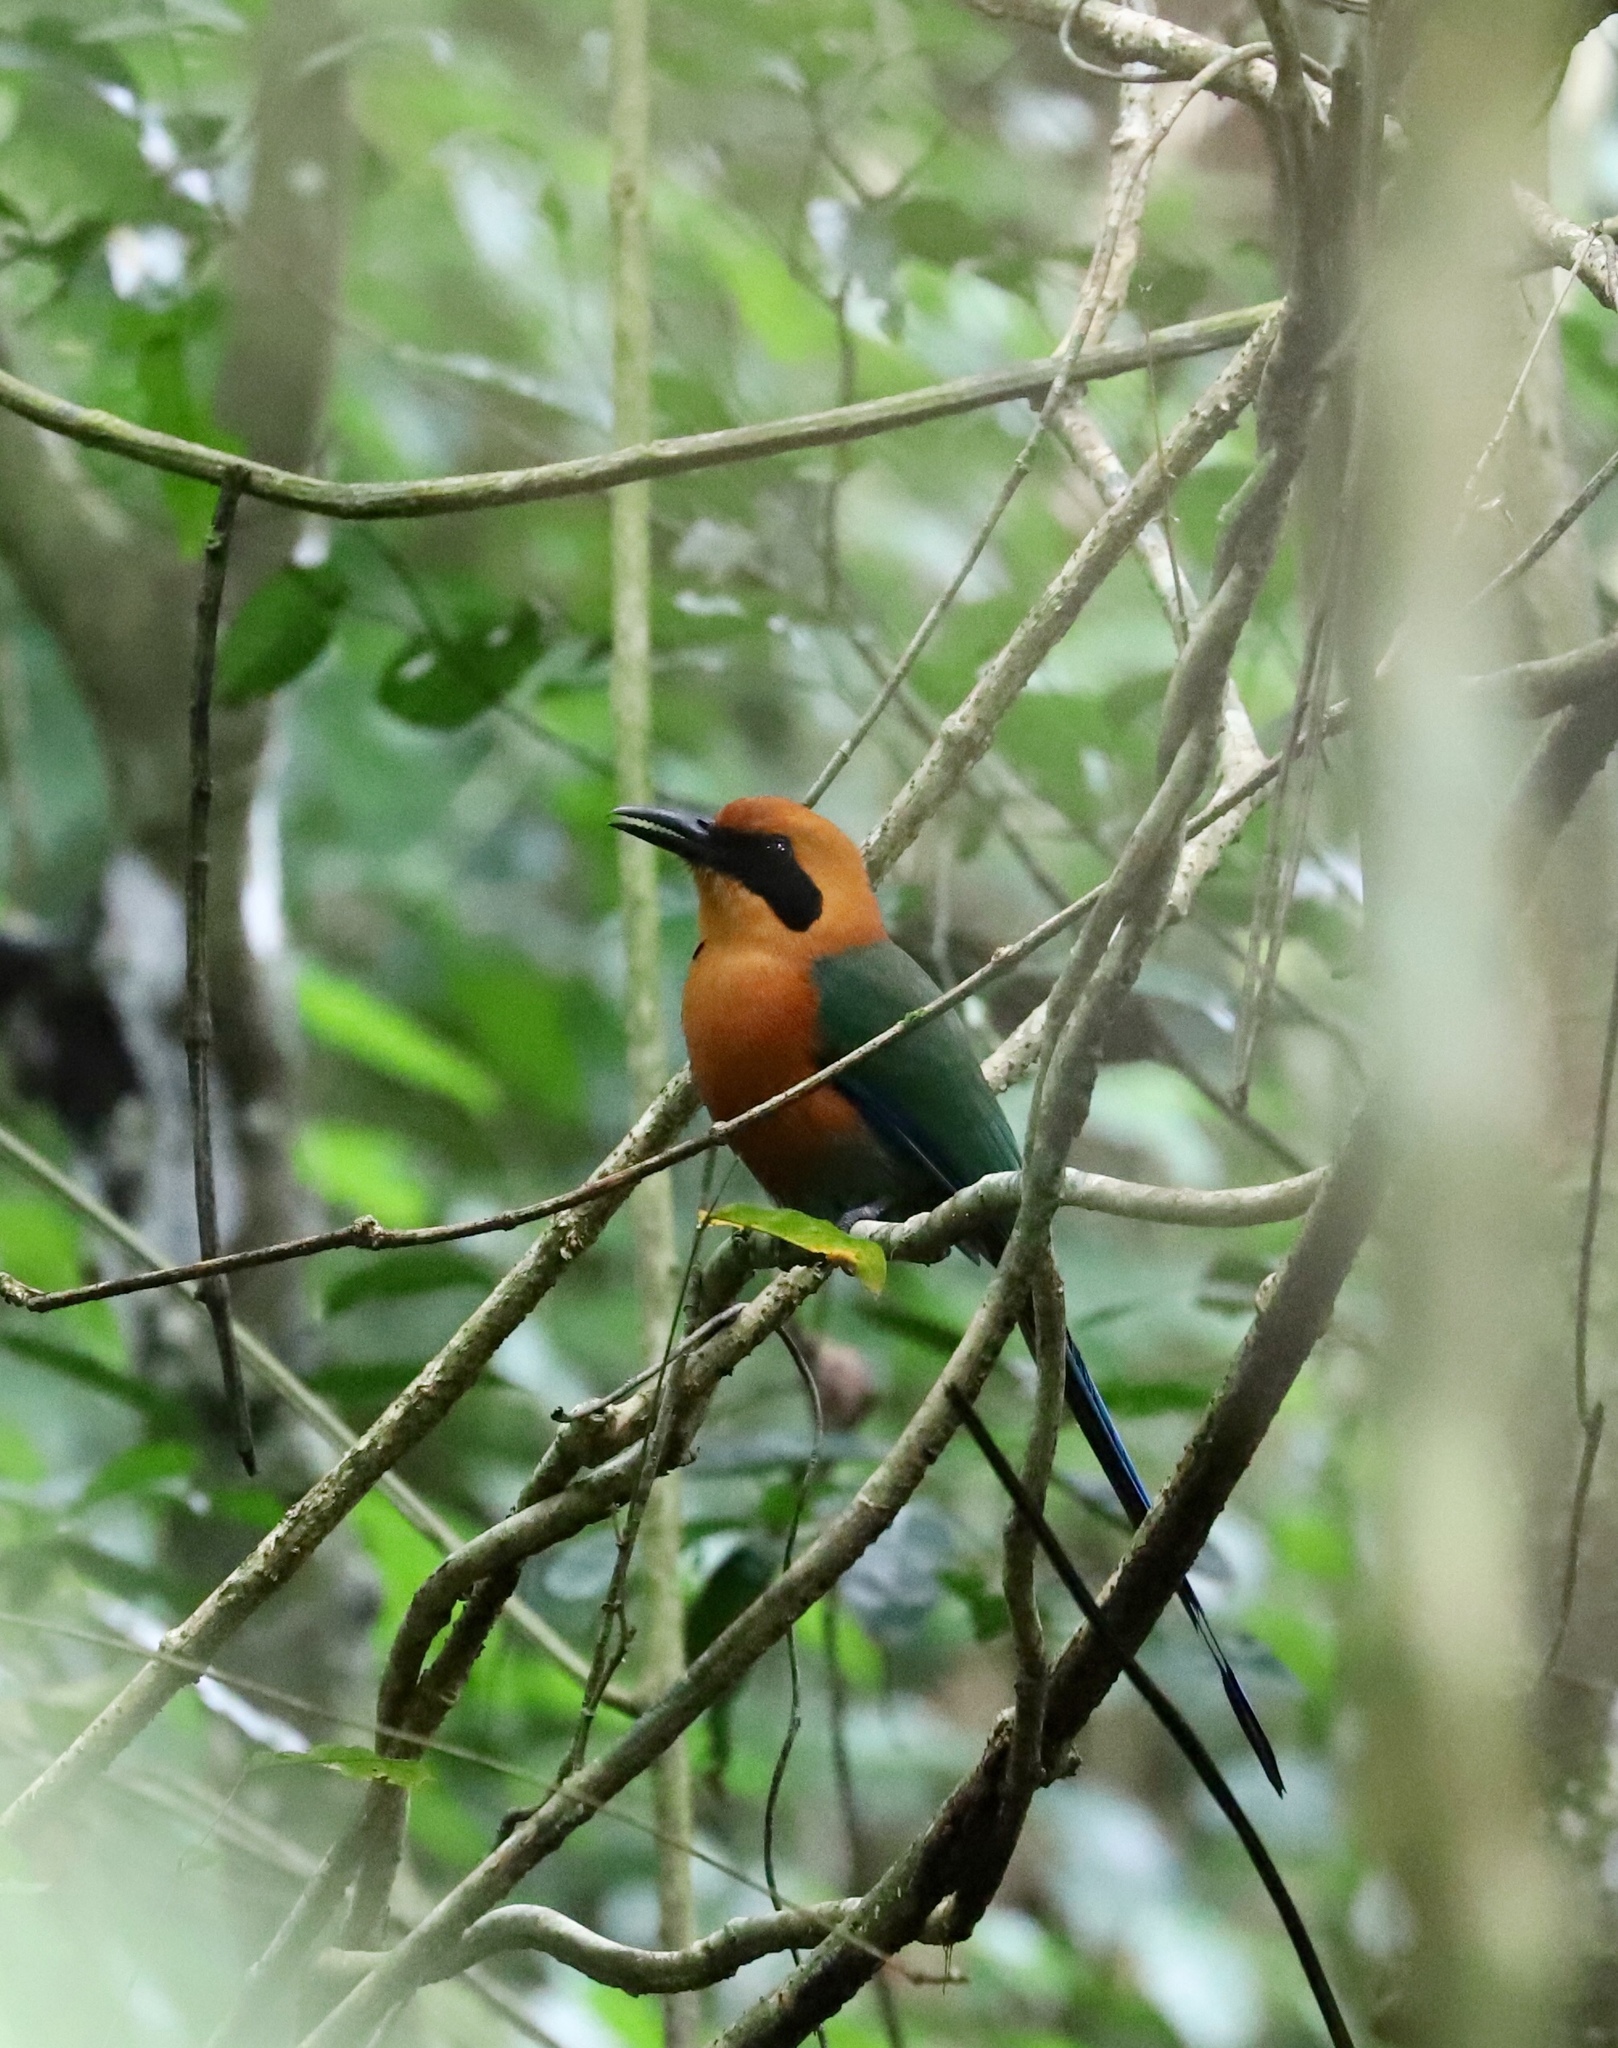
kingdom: Animalia
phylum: Chordata
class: Aves
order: Coraciiformes
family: Momotidae
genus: Baryphthengus
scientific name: Baryphthengus martii
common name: Rufous motmot
